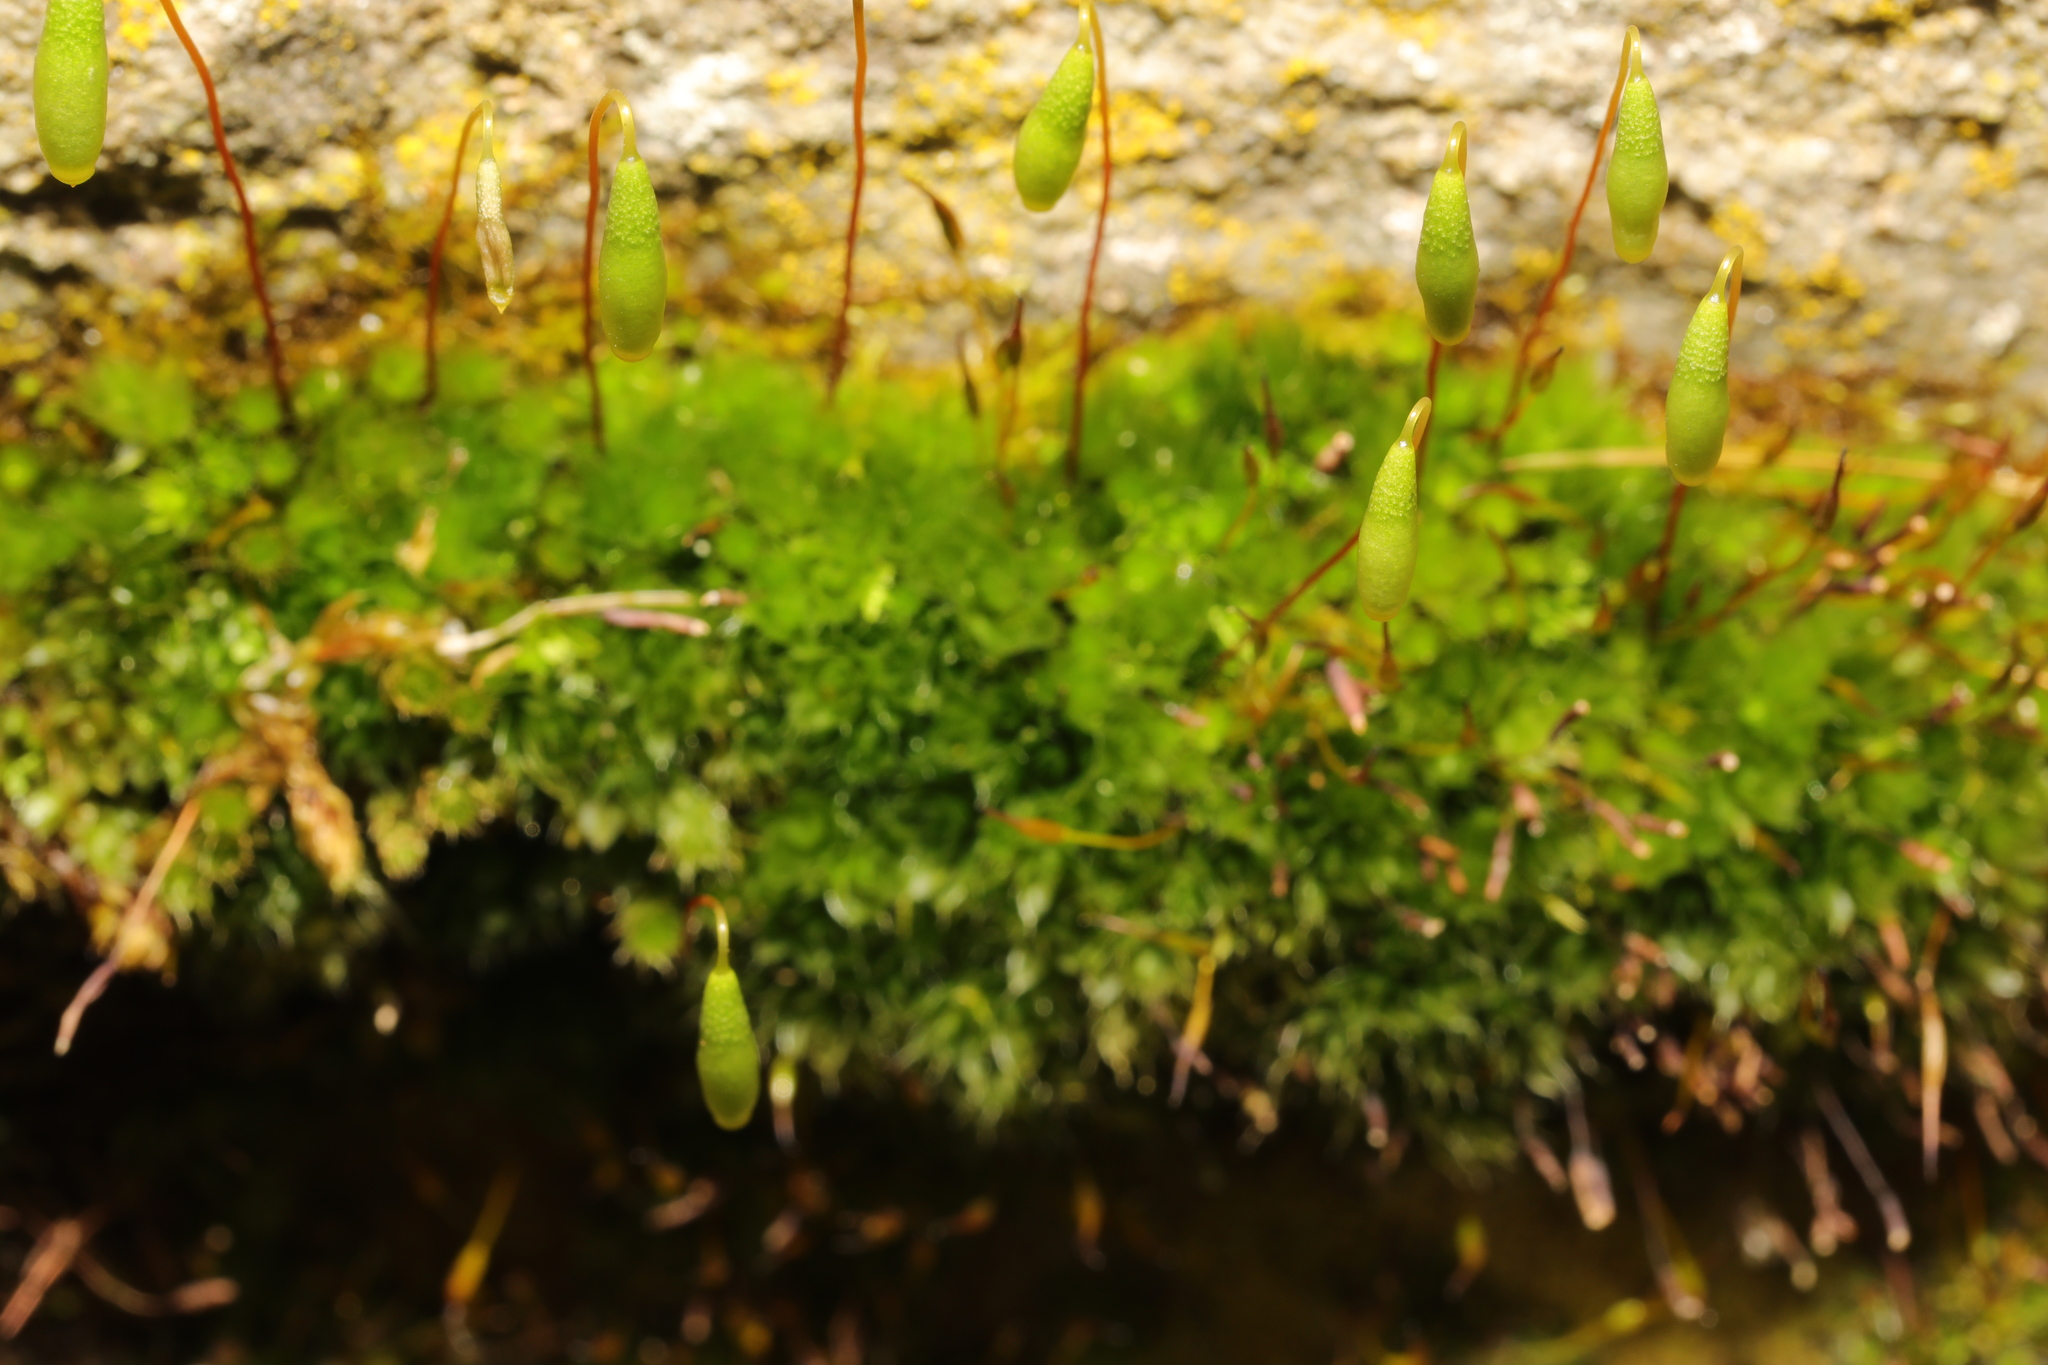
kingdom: Plantae
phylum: Bryophyta
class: Bryopsida
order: Bryales
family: Bryaceae
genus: Rosulabryum
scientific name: Rosulabryum capillare
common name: Capillary thread-moss
